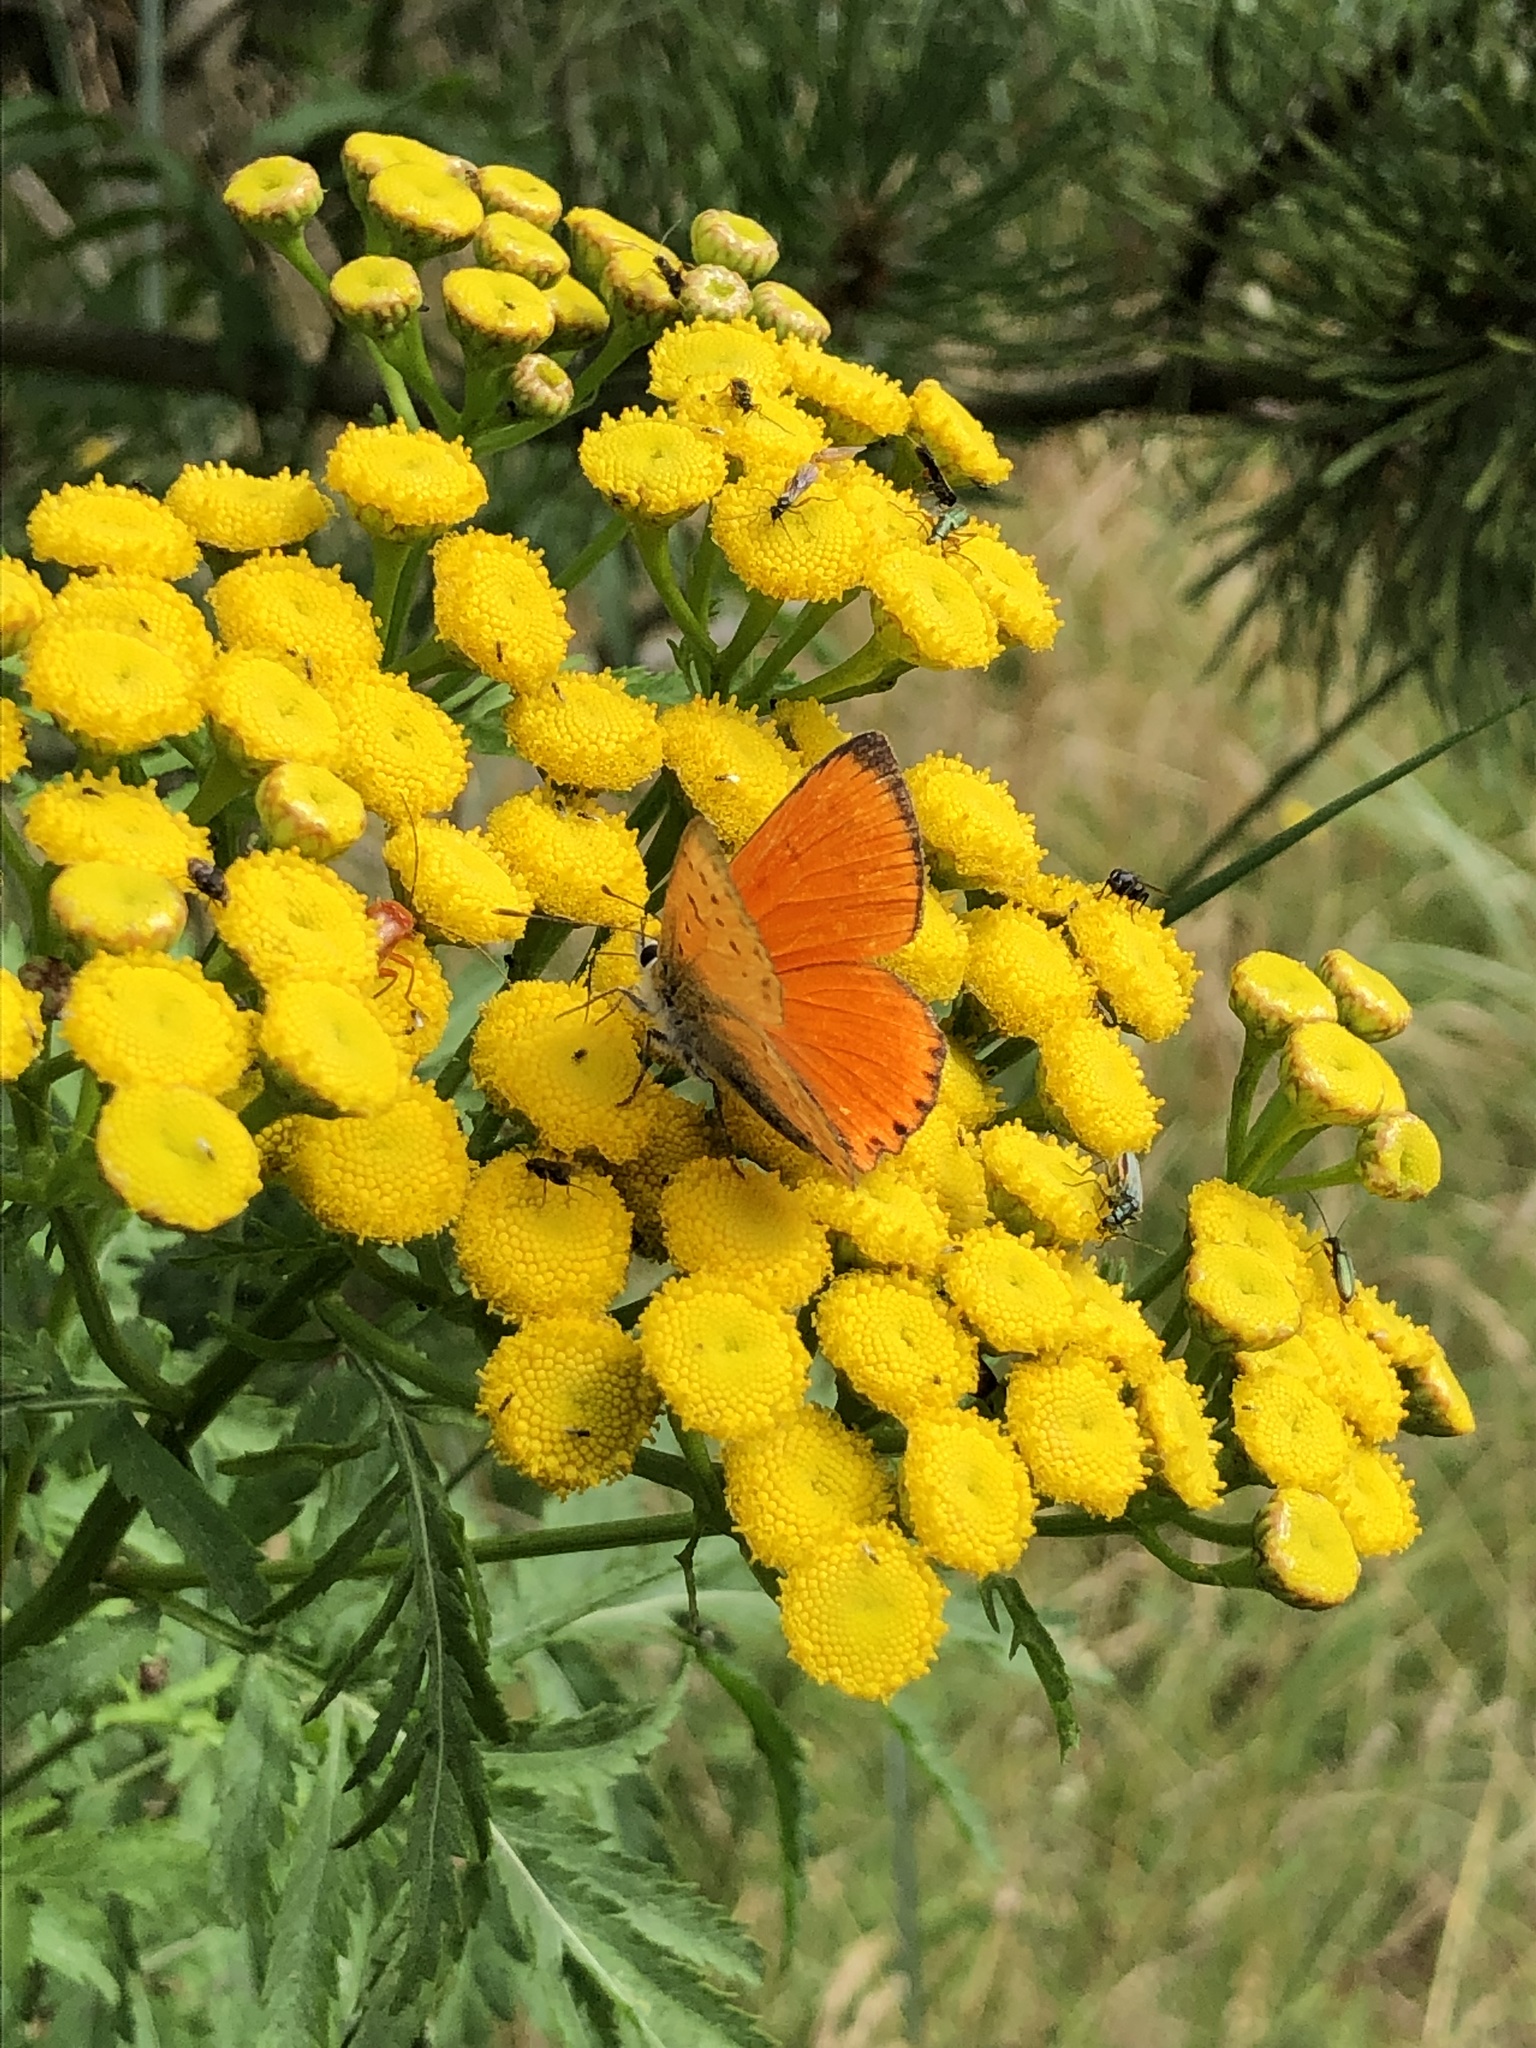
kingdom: Animalia
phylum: Arthropoda
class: Insecta
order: Lepidoptera
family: Lycaenidae
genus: Lycaena
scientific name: Lycaena virgaureae
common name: Scarce copper
